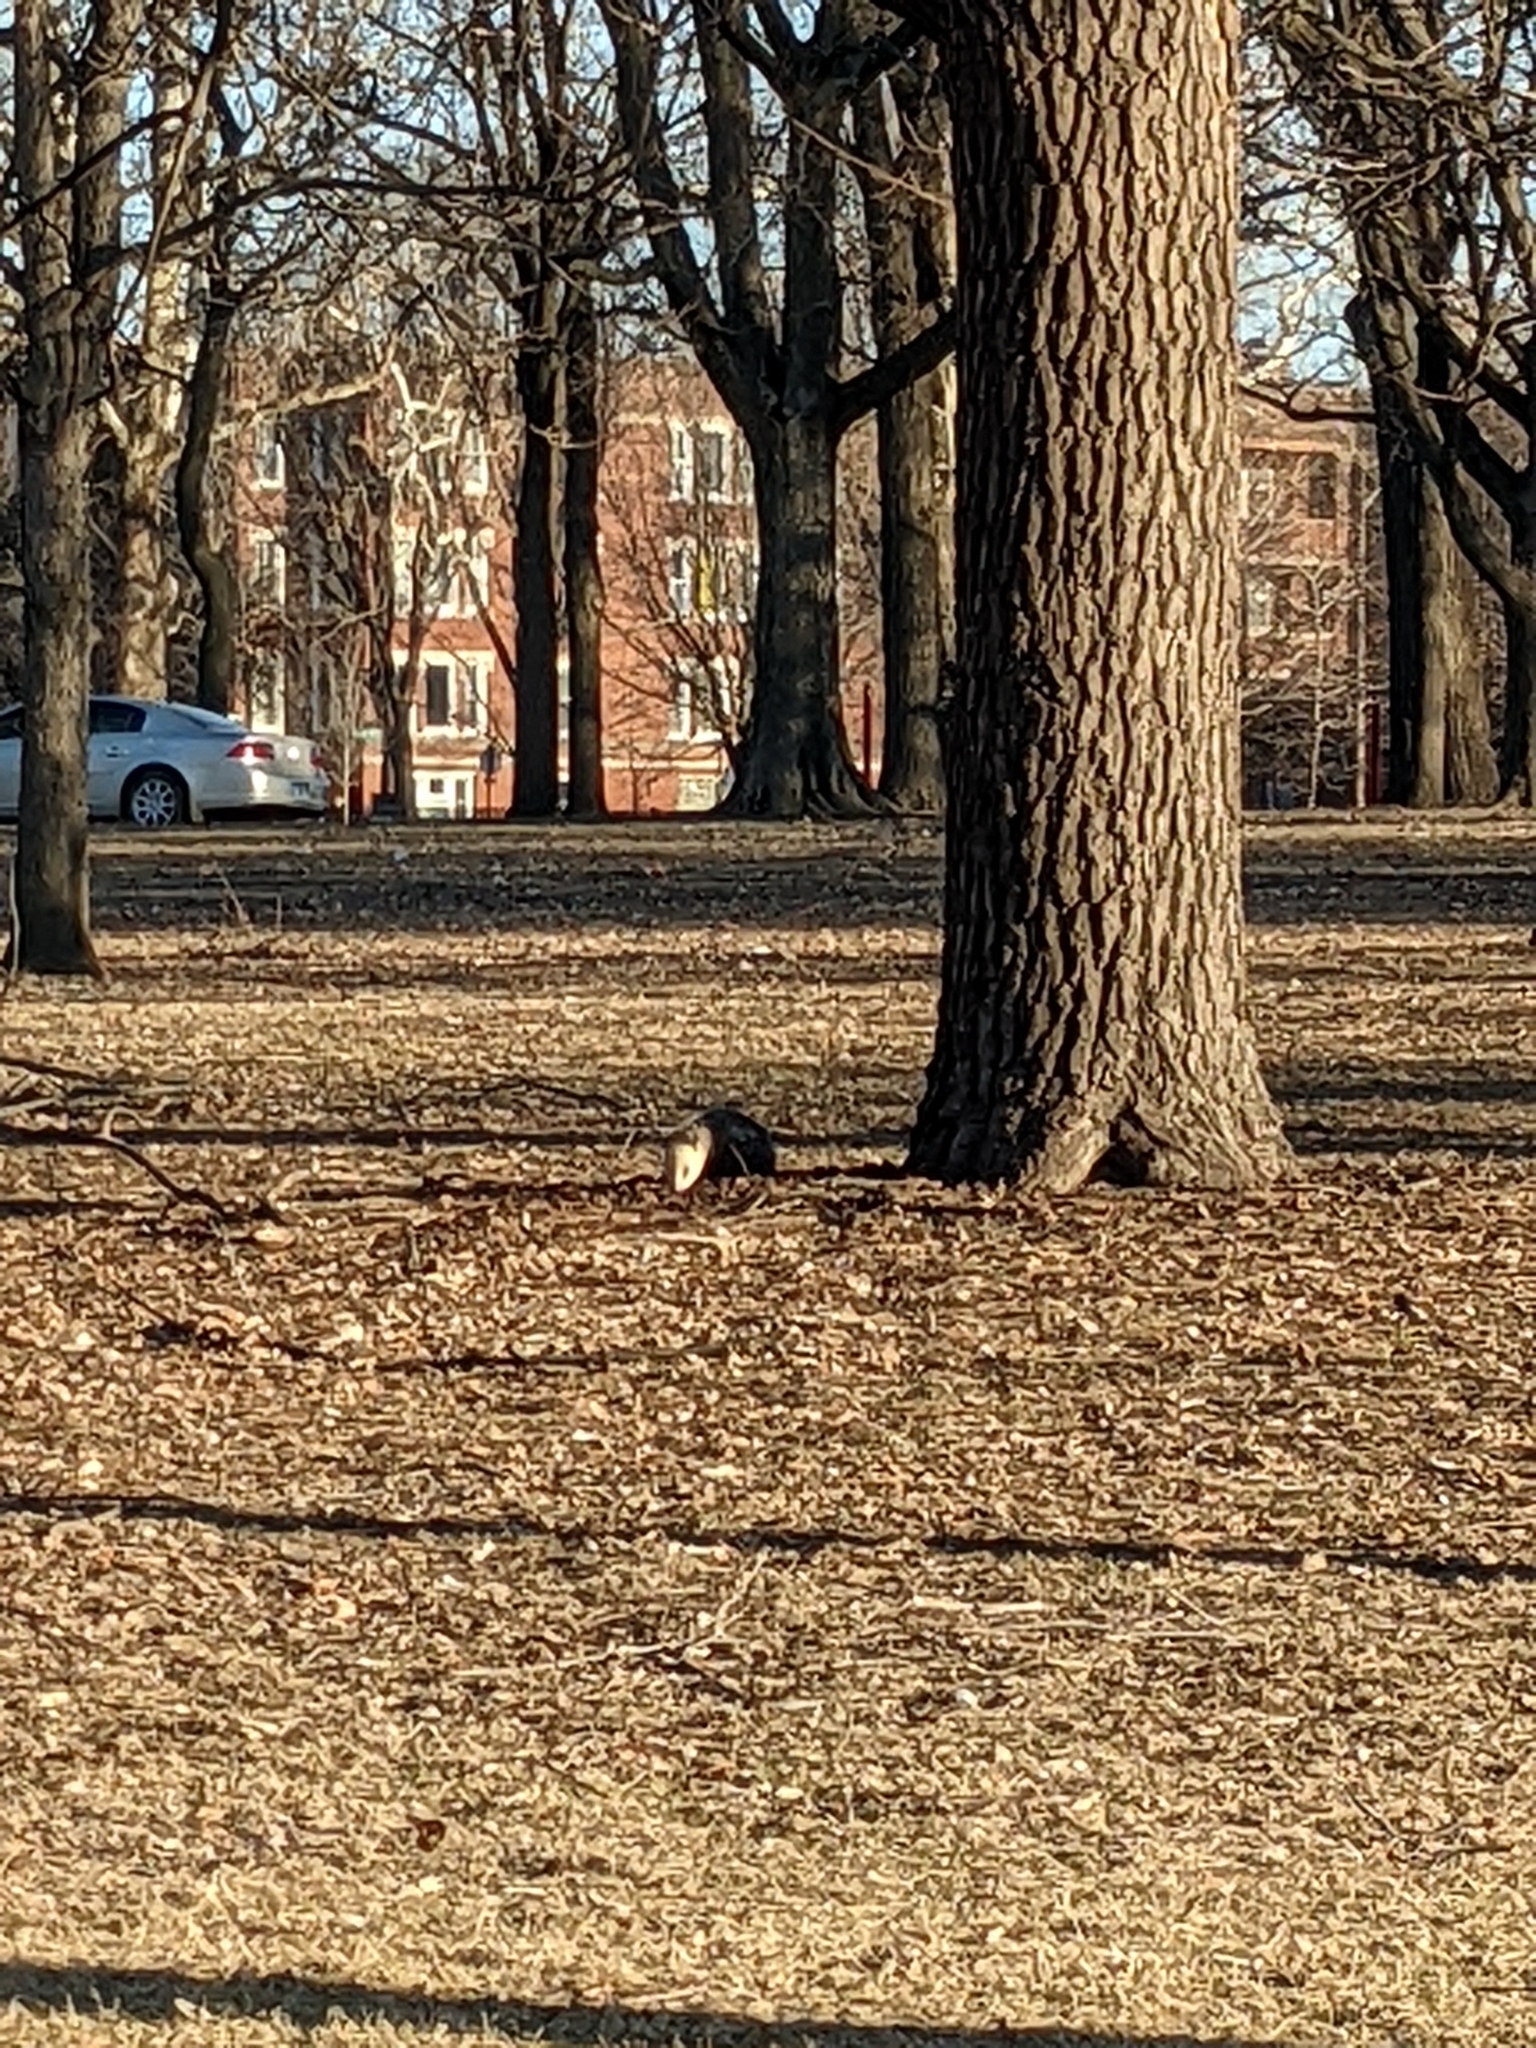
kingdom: Animalia
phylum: Chordata
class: Mammalia
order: Didelphimorphia
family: Didelphidae
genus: Didelphis
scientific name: Didelphis virginiana
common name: Virginia opossum
